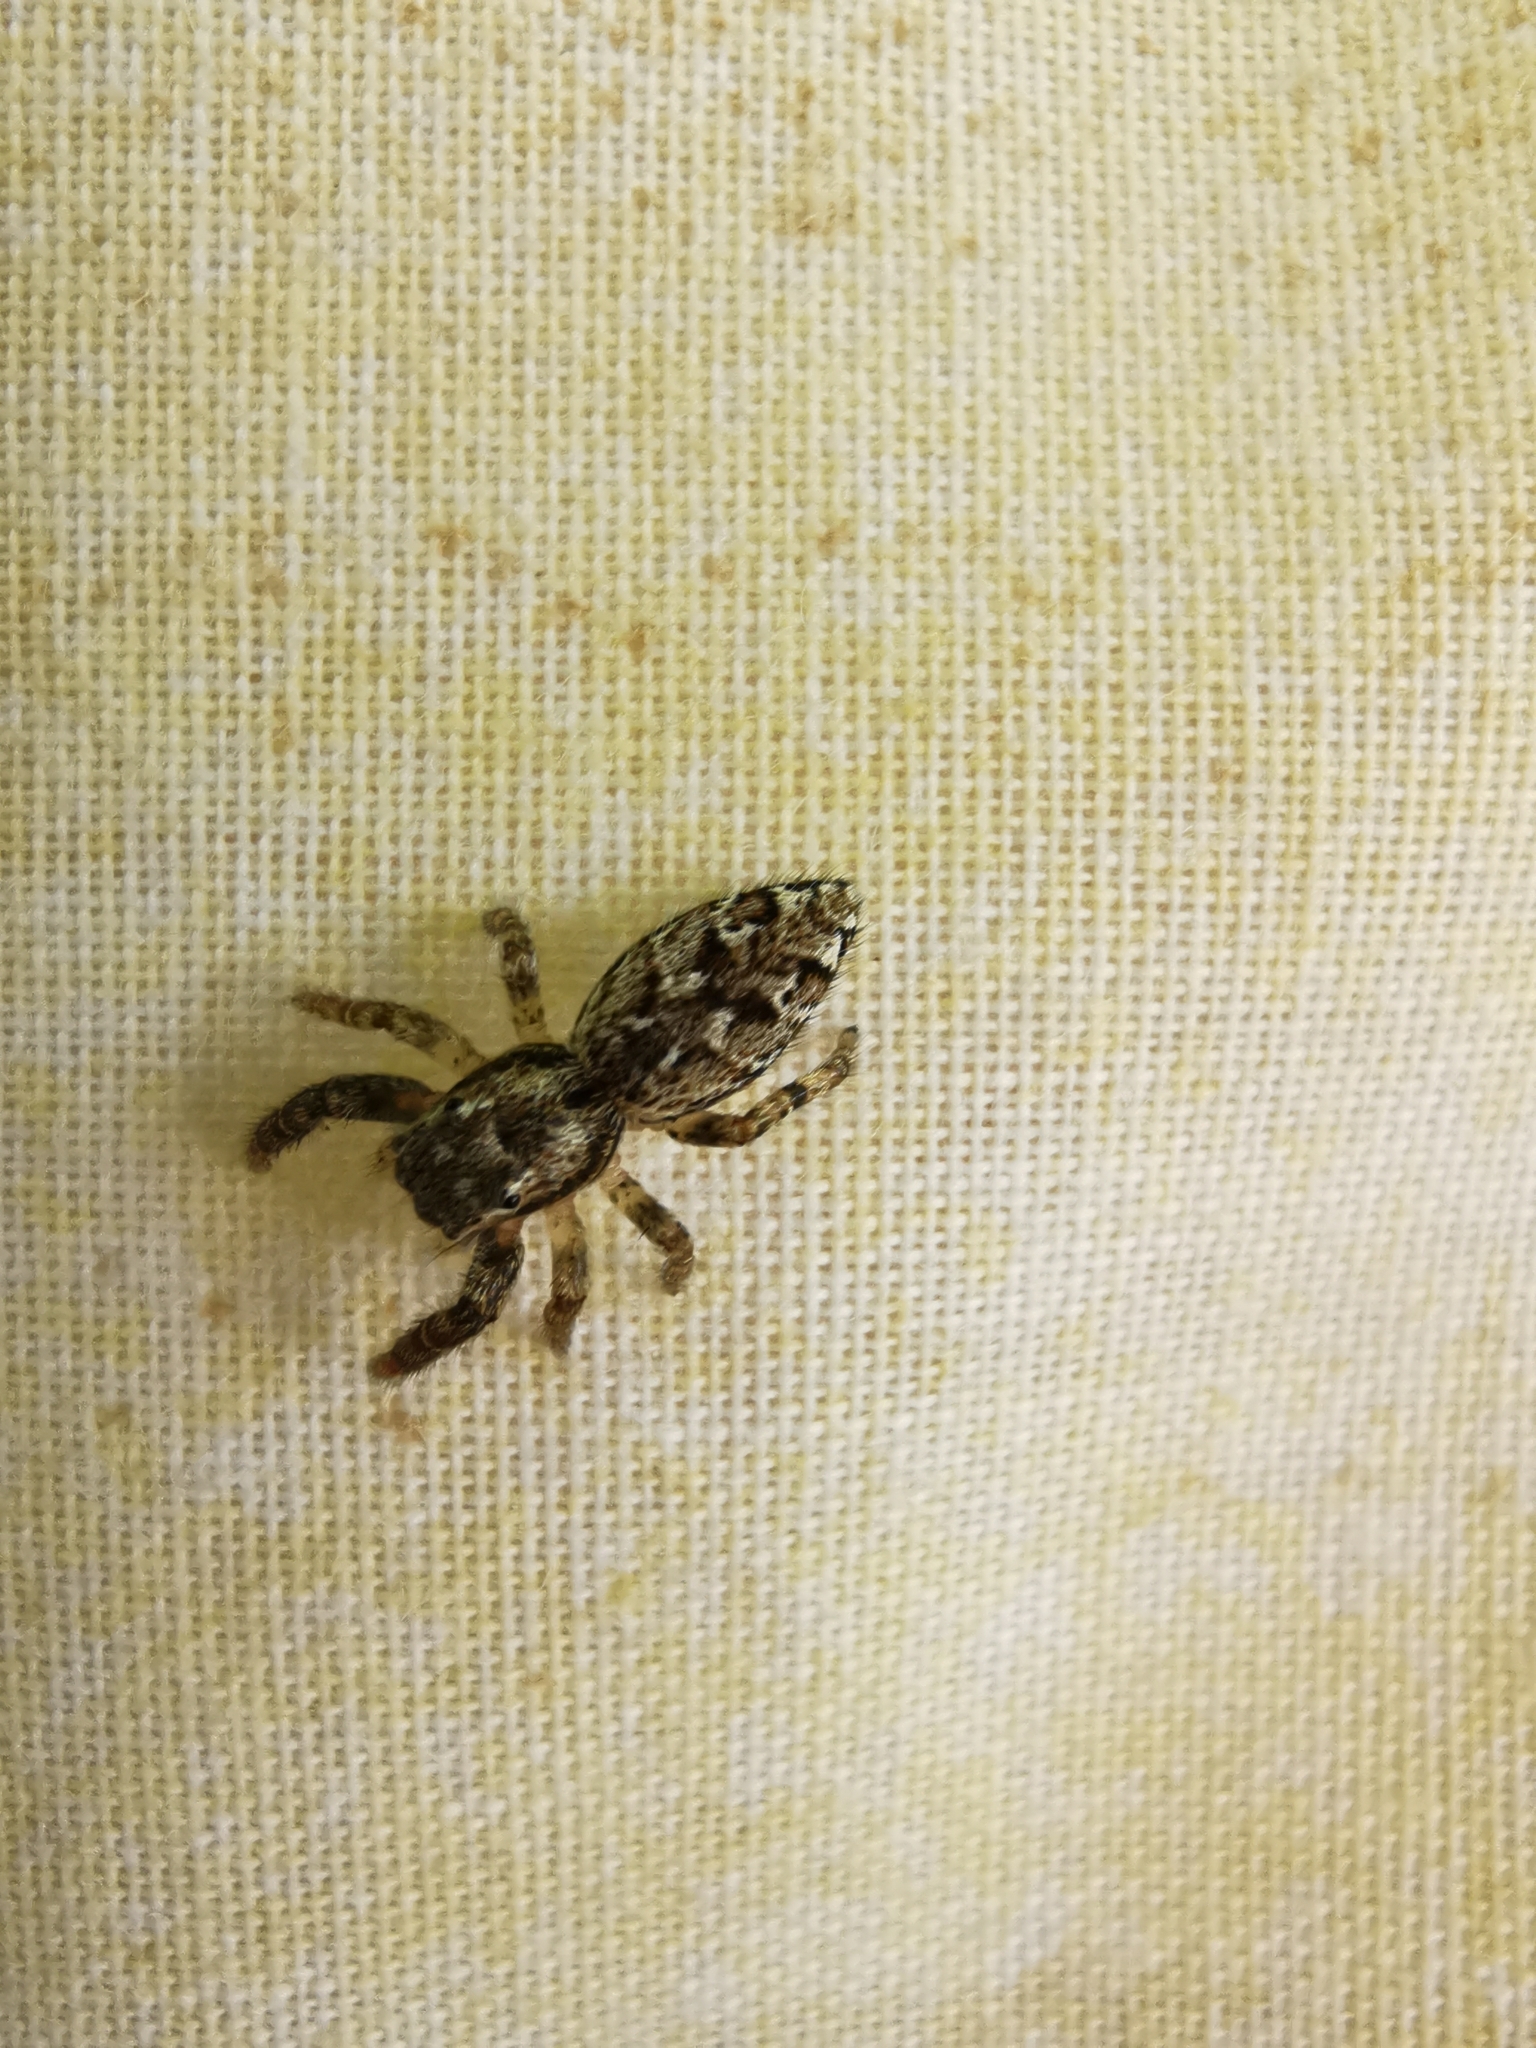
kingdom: Animalia
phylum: Arthropoda
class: Arachnida
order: Araneae
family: Salticidae
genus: Marpissa
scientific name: Marpissa muscosa
